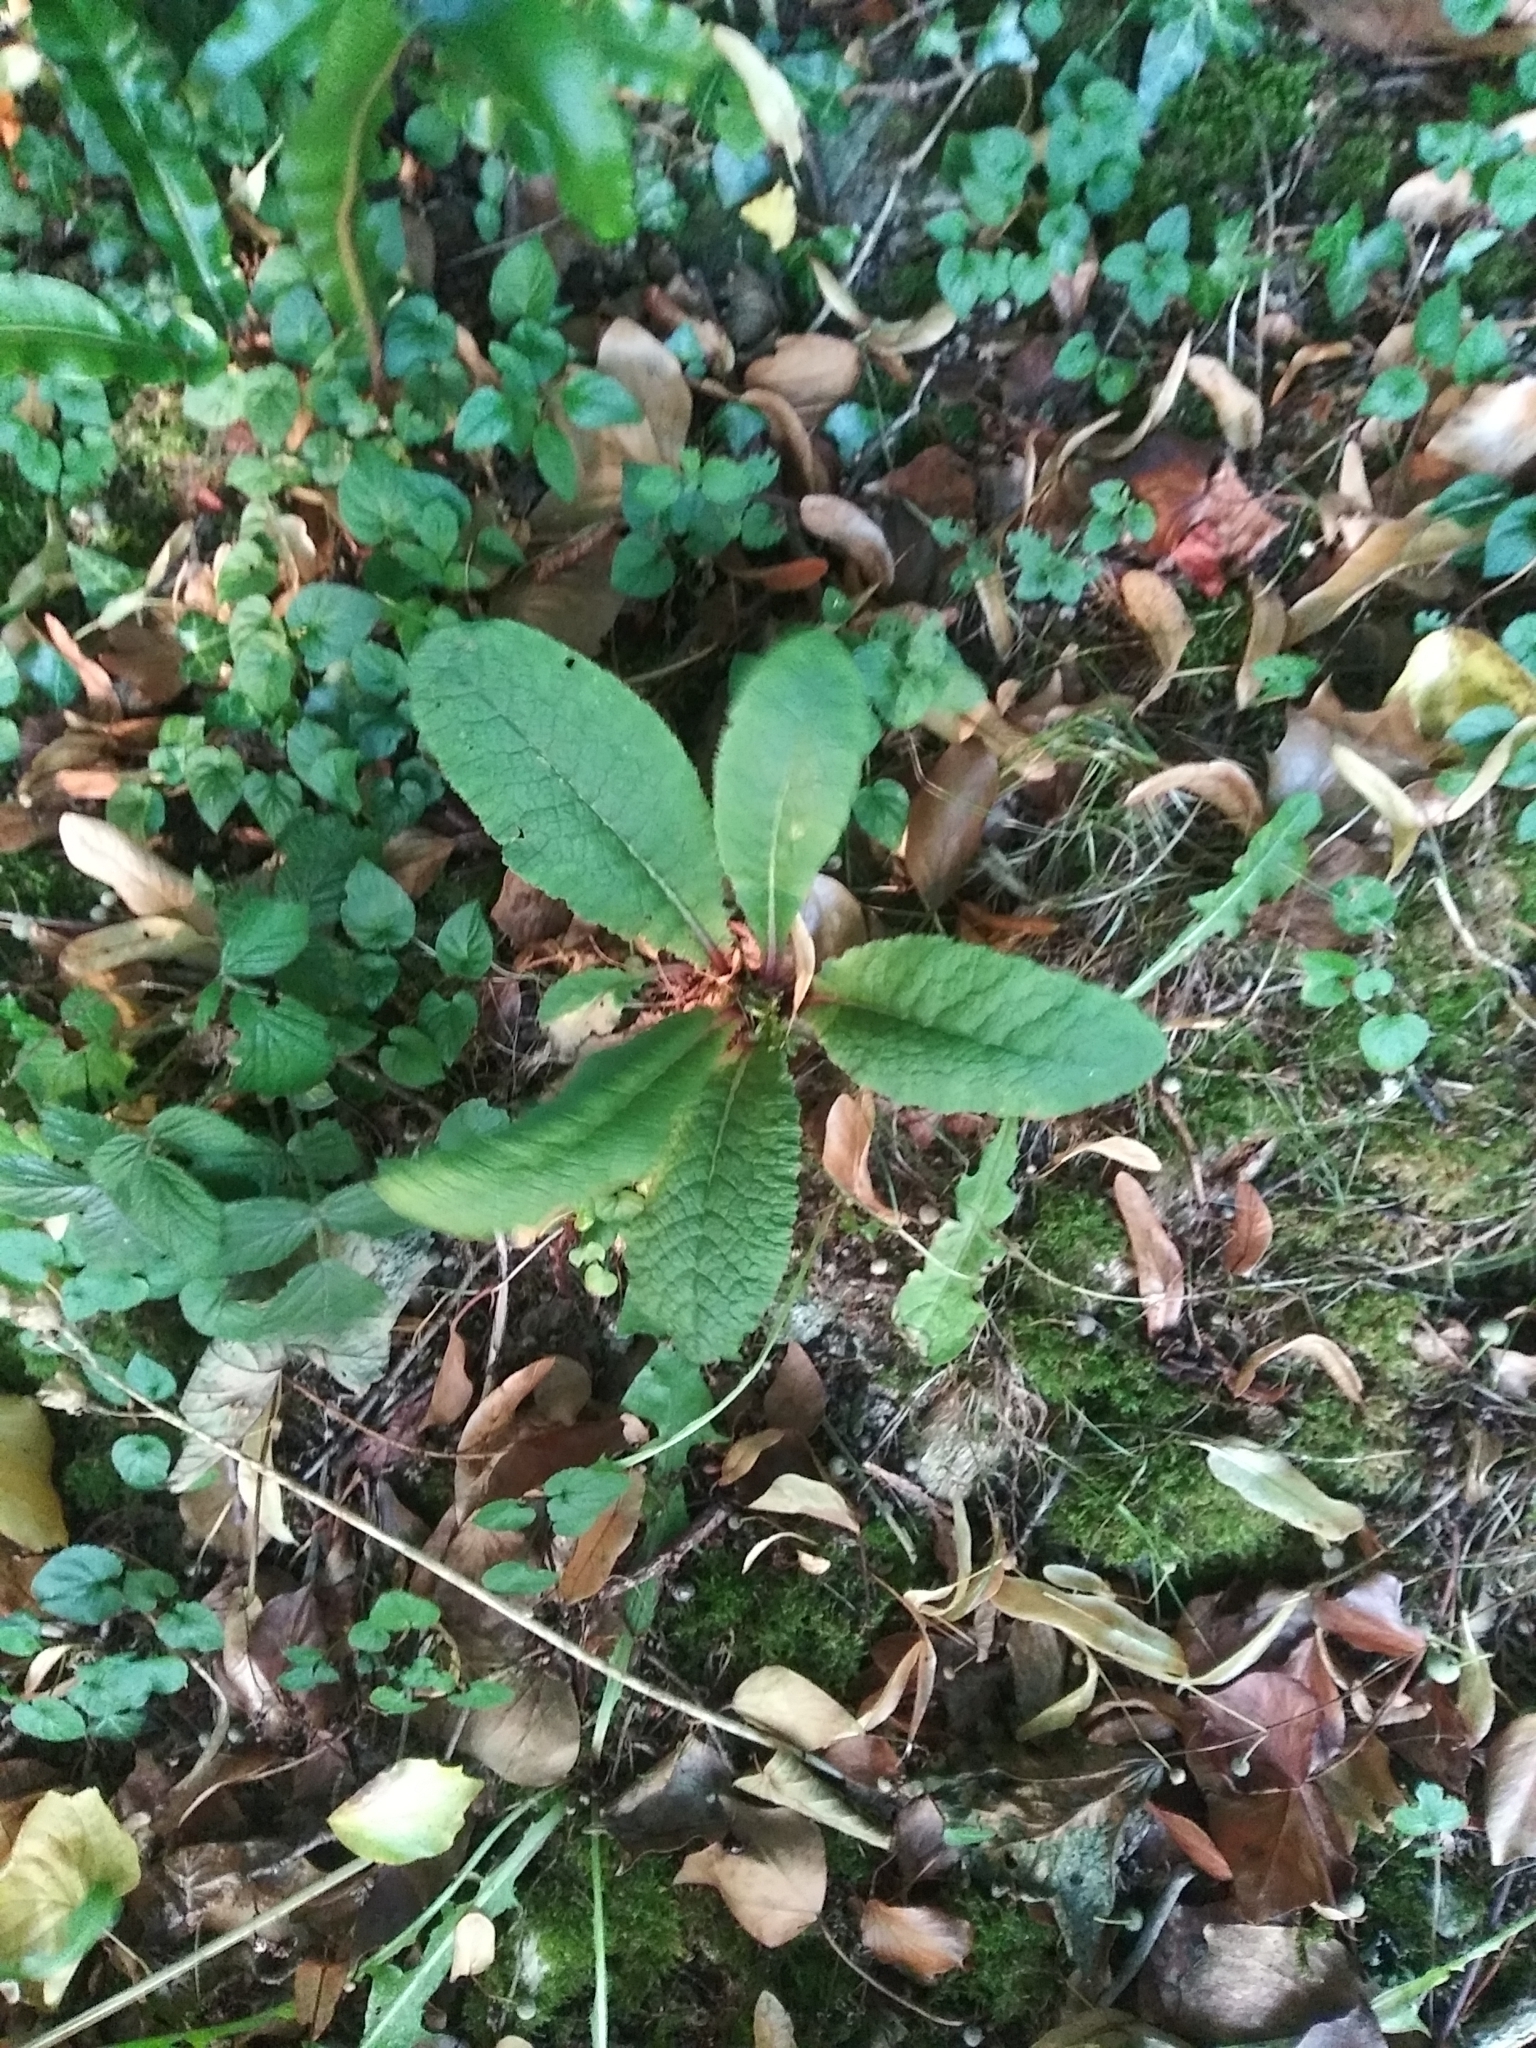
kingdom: Plantae
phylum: Tracheophyta
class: Magnoliopsida
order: Ericales
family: Primulaceae
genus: Primula
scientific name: Primula vulgaris
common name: Primrose
